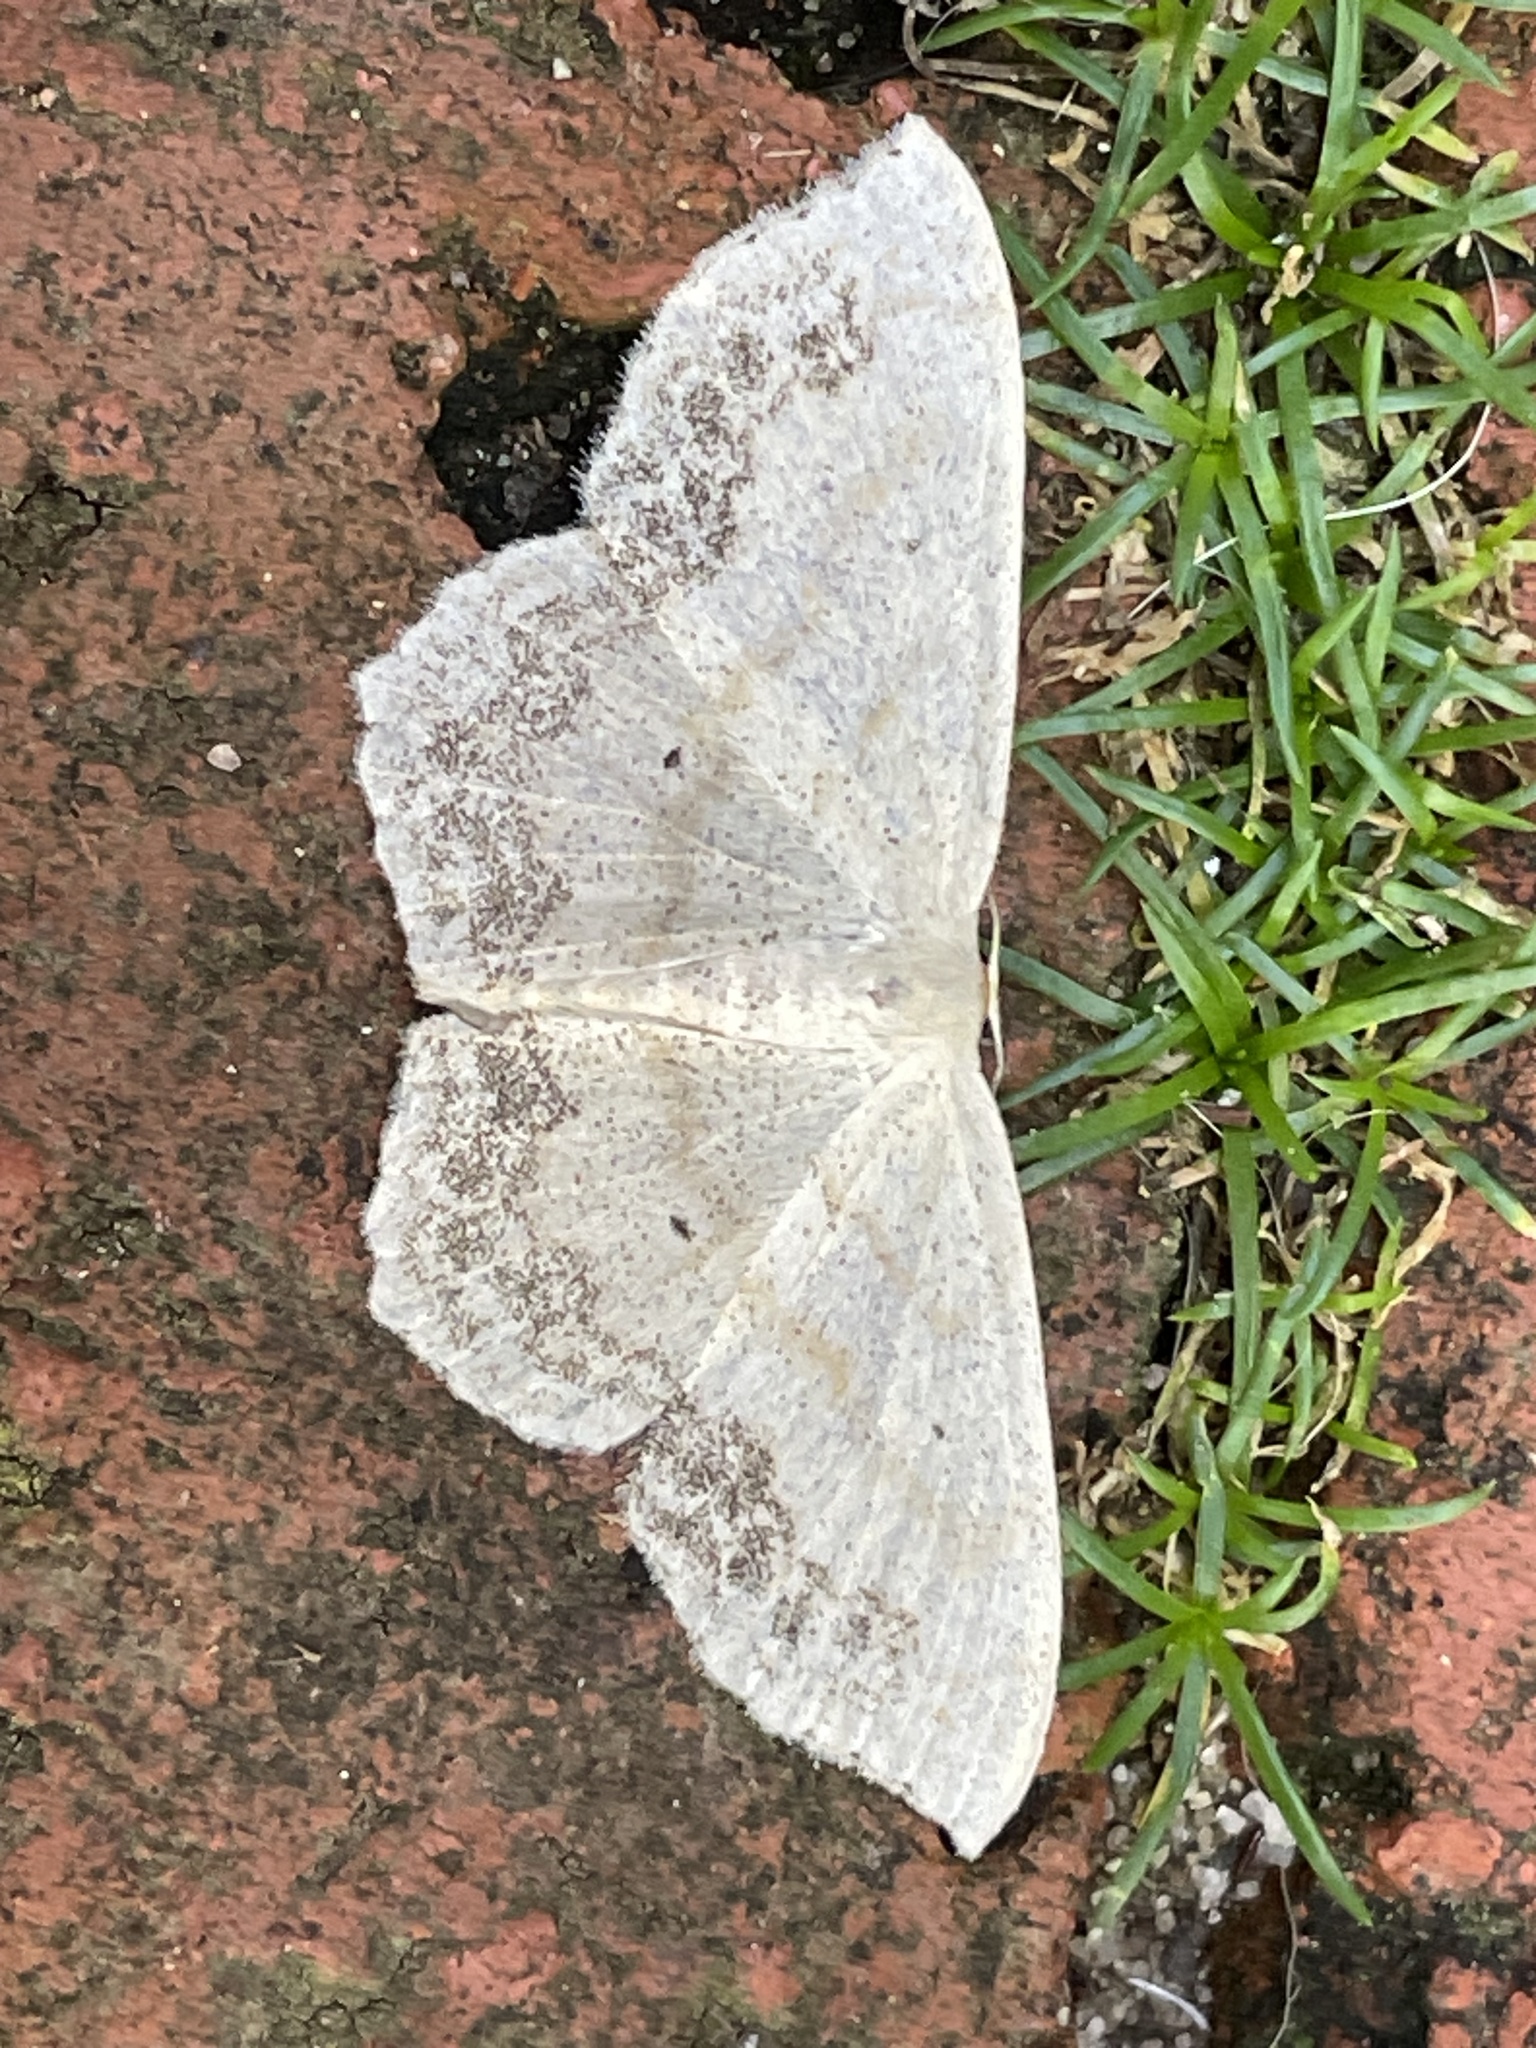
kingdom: Animalia
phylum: Arthropoda
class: Insecta
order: Lepidoptera
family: Geometridae
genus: Scopula
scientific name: Scopula limboundata
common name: Large lace border
